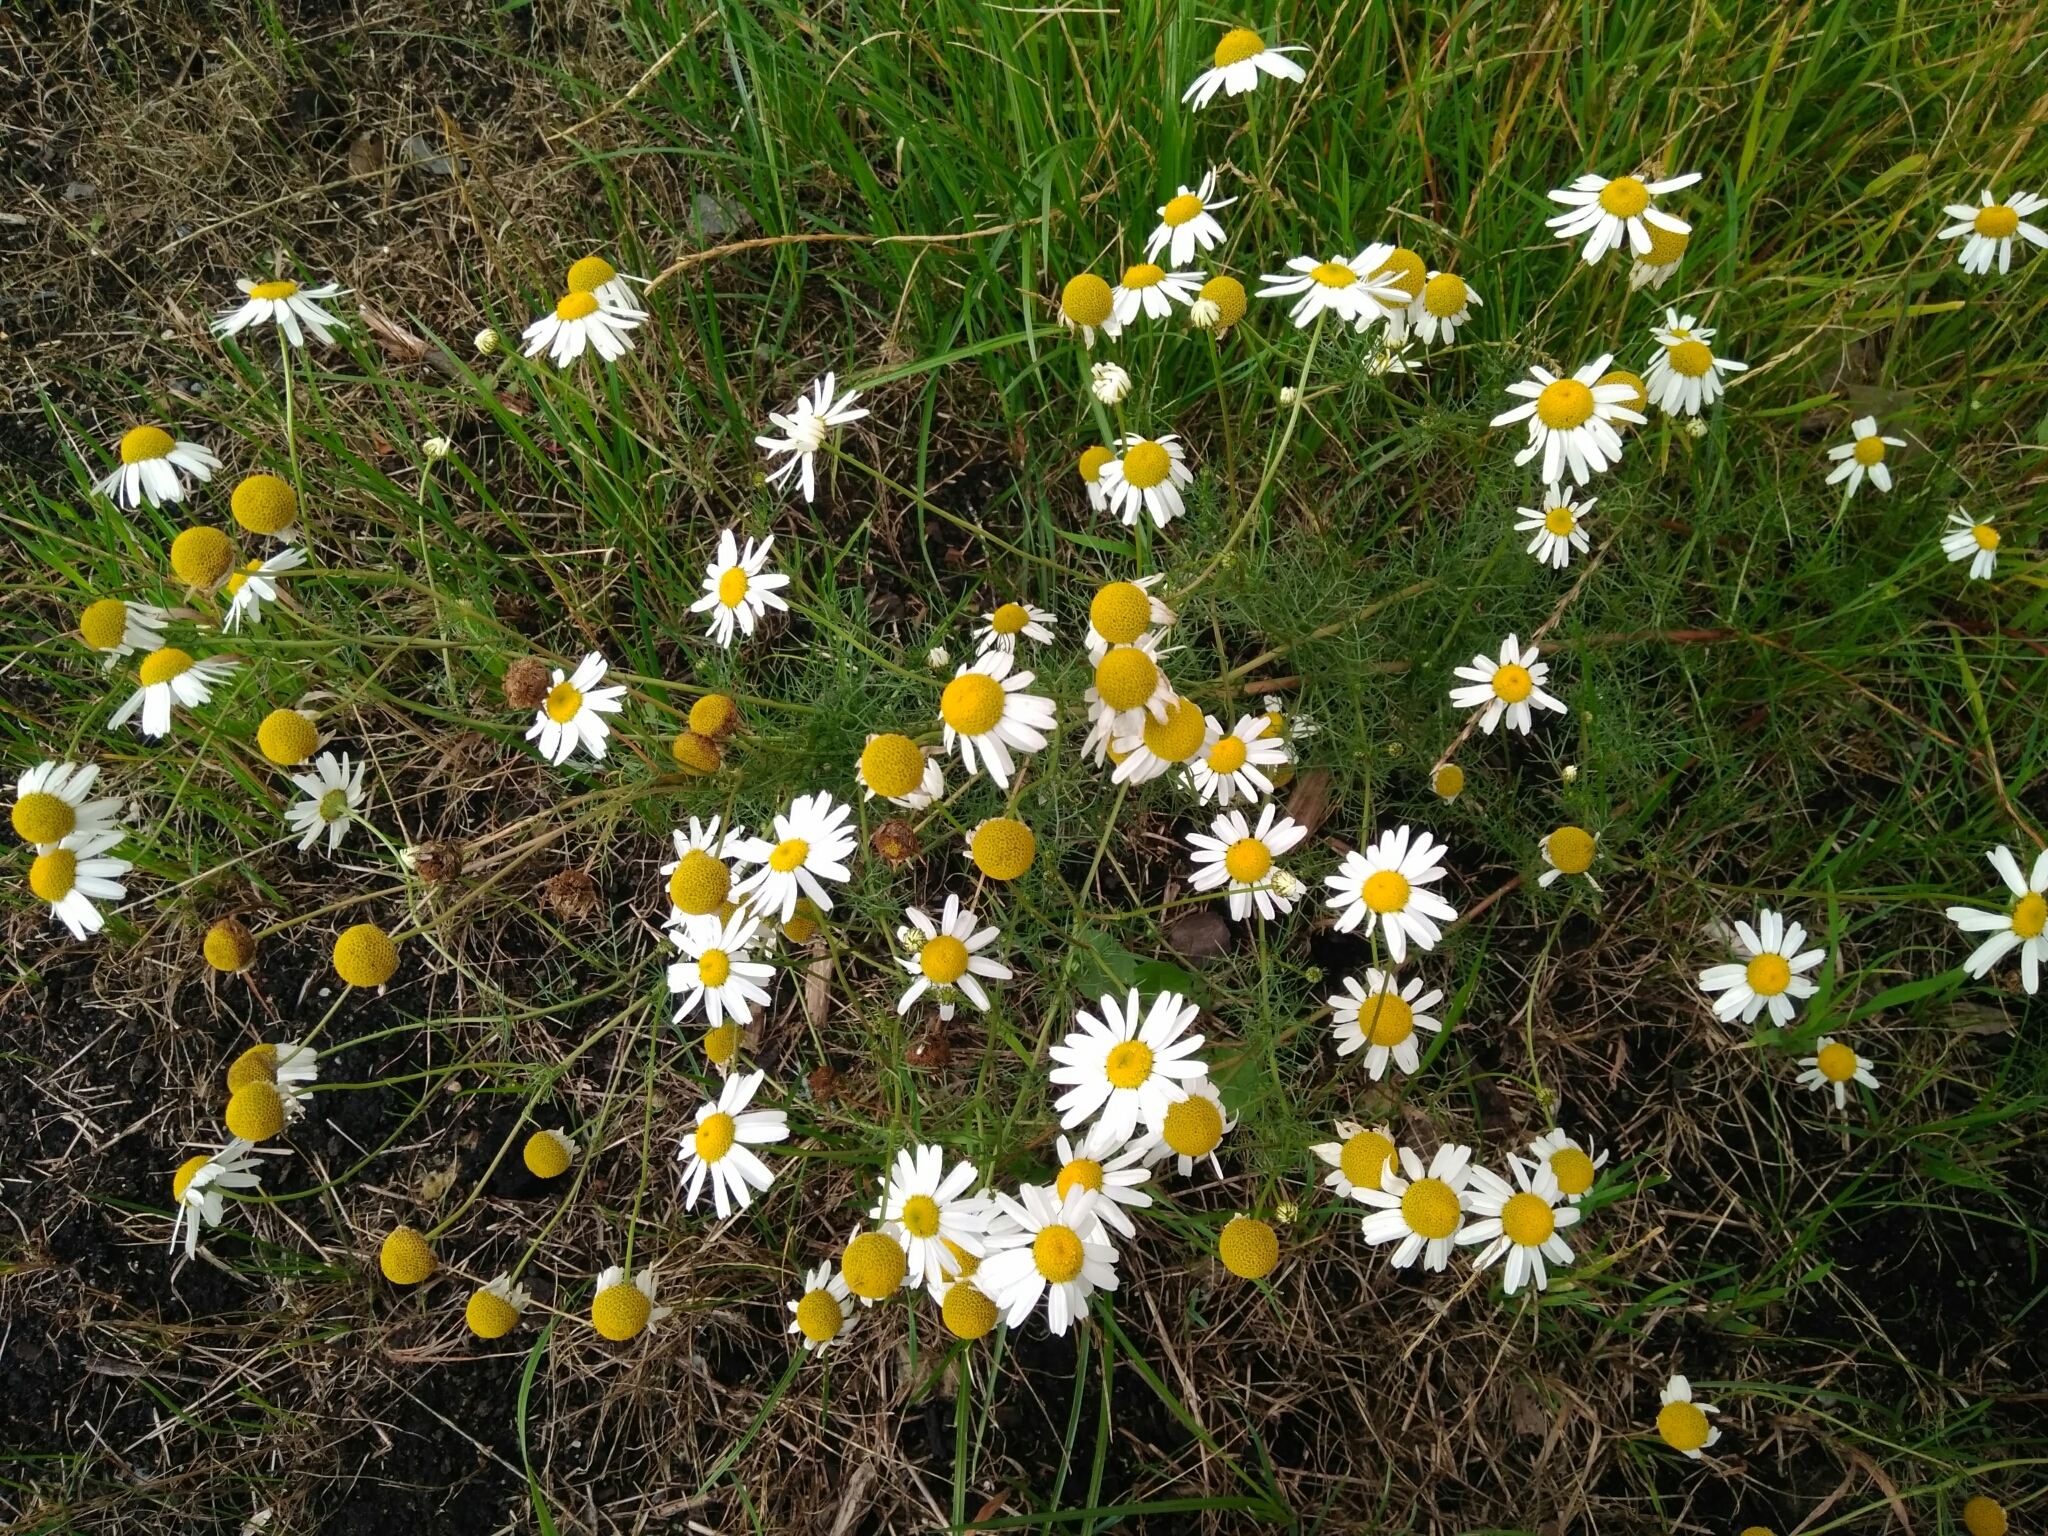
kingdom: Plantae
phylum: Tracheophyta
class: Magnoliopsida
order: Asterales
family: Asteraceae
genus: Tripleurospermum
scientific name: Tripleurospermum inodorum
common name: Scentless mayweed
